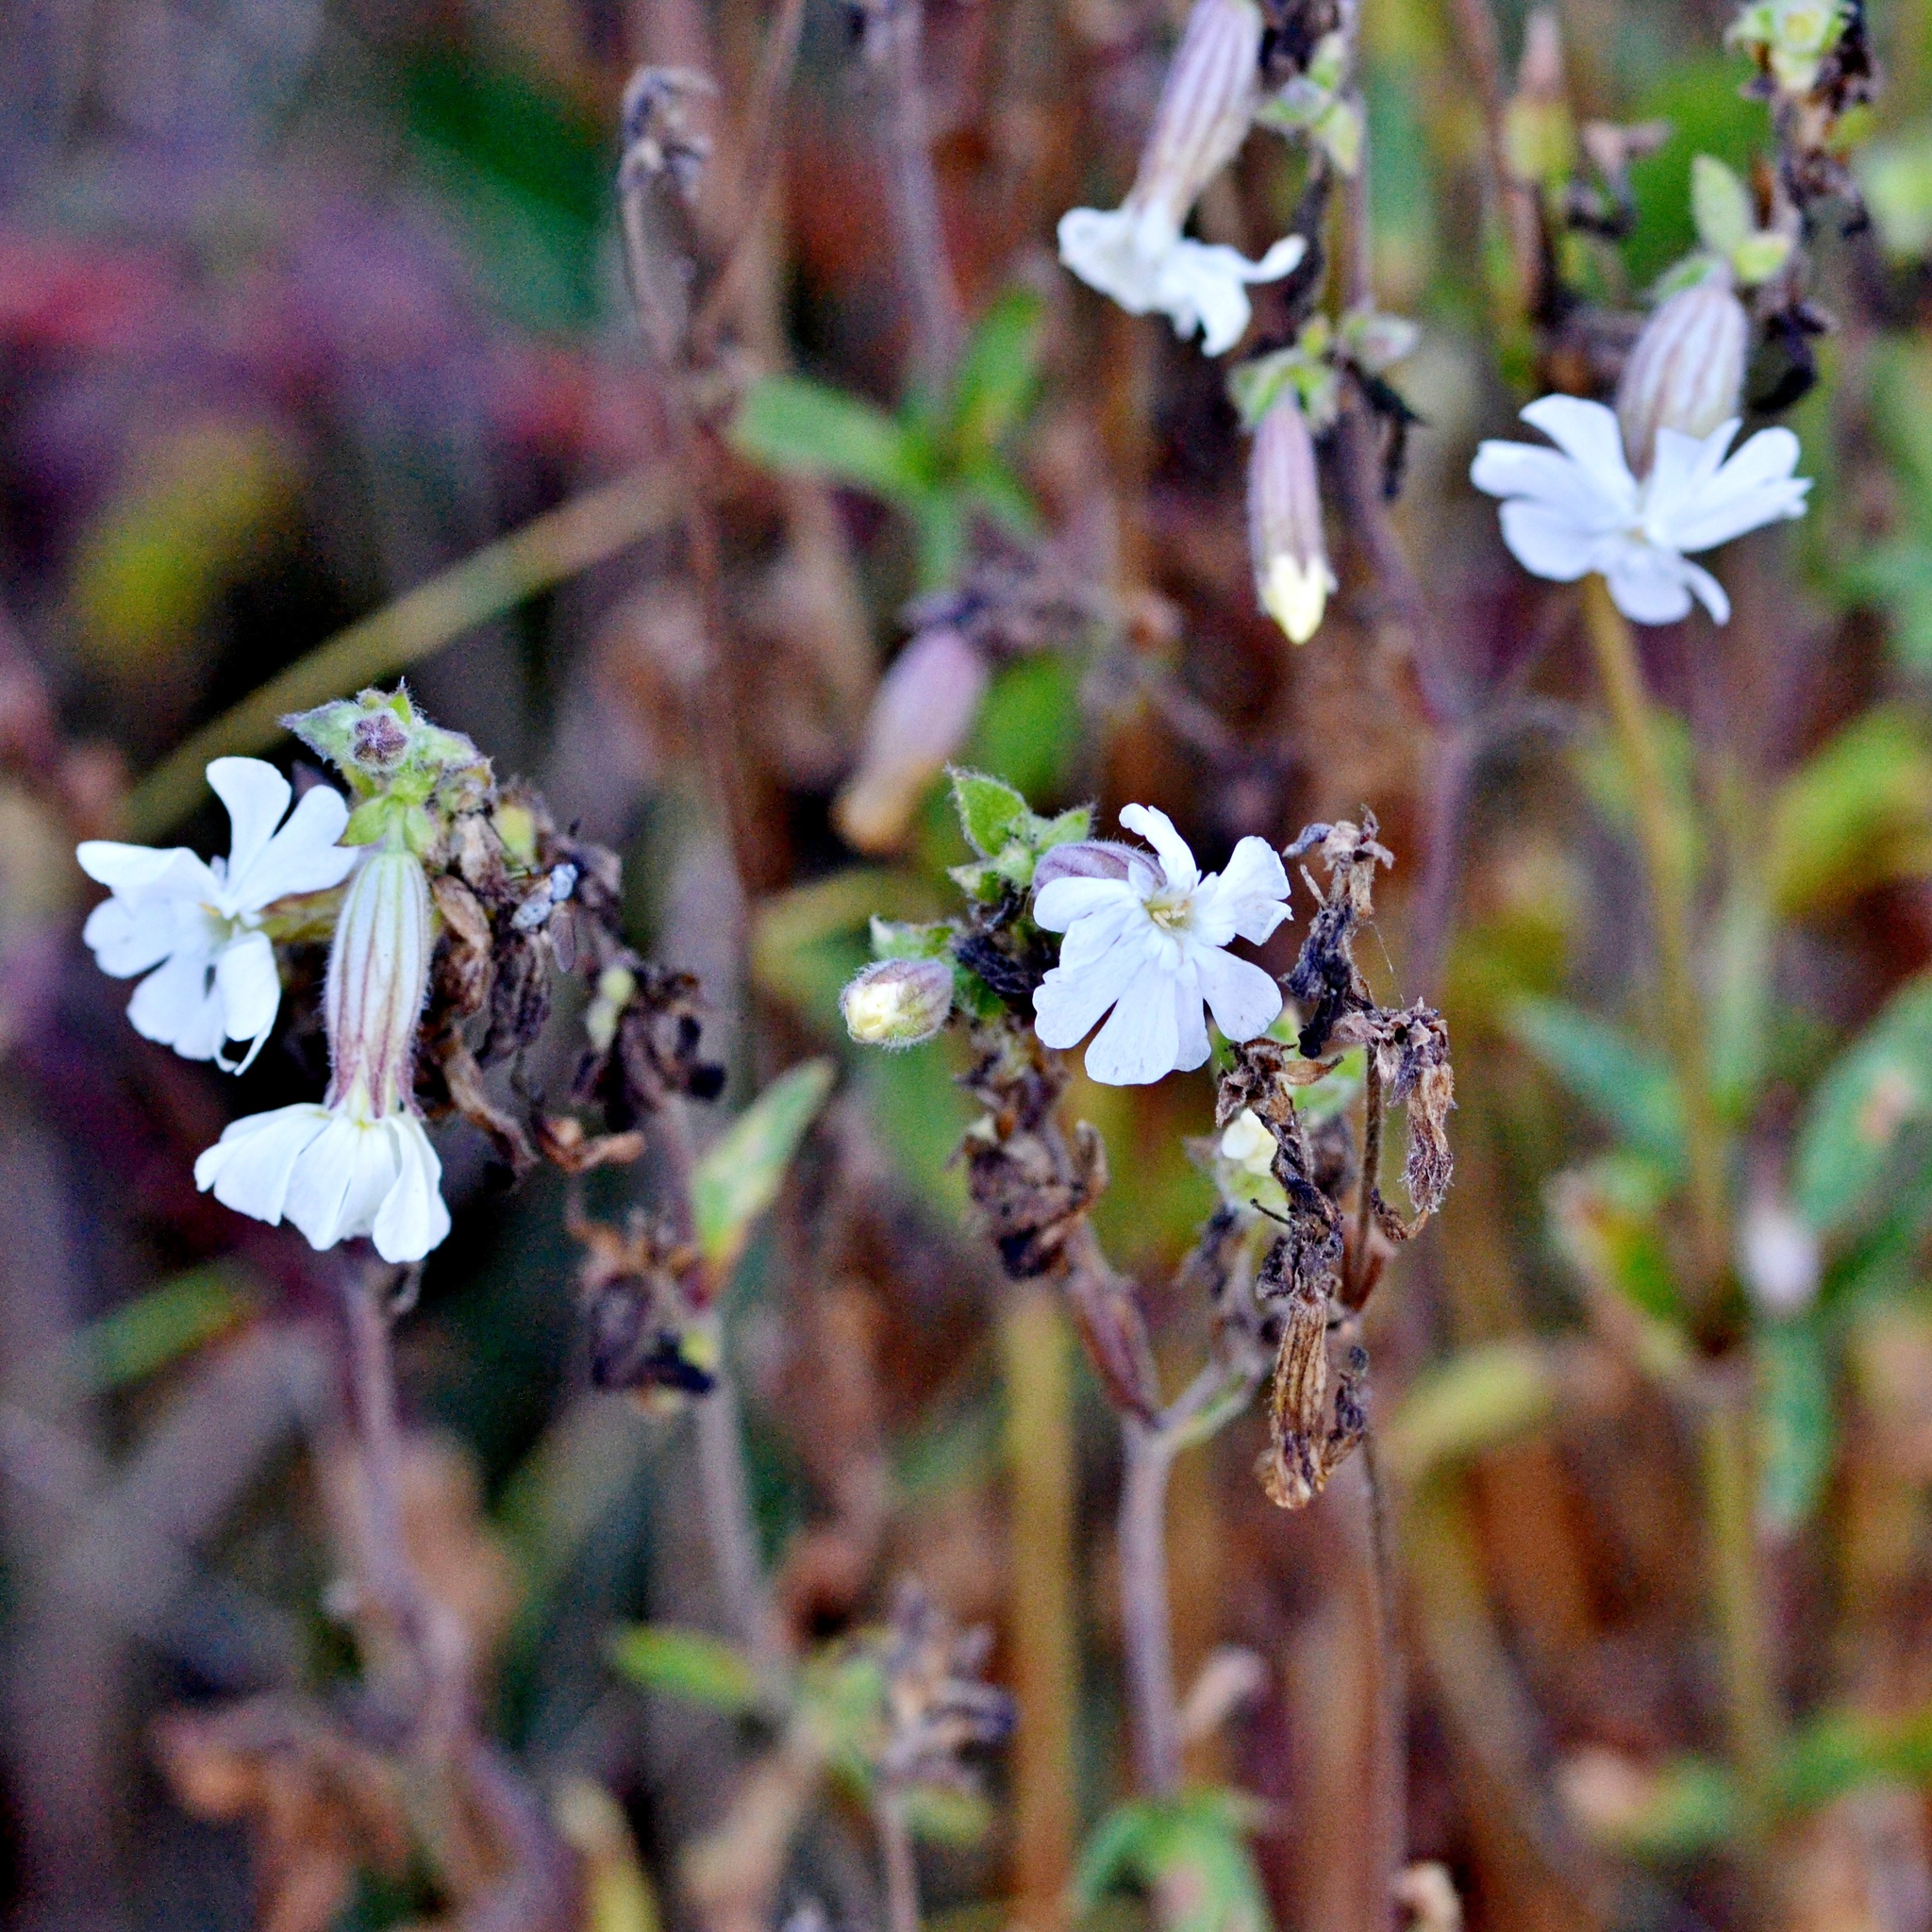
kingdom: Plantae
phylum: Tracheophyta
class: Magnoliopsida
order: Caryophyllales
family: Caryophyllaceae
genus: Silene
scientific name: Silene latifolia
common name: White campion
